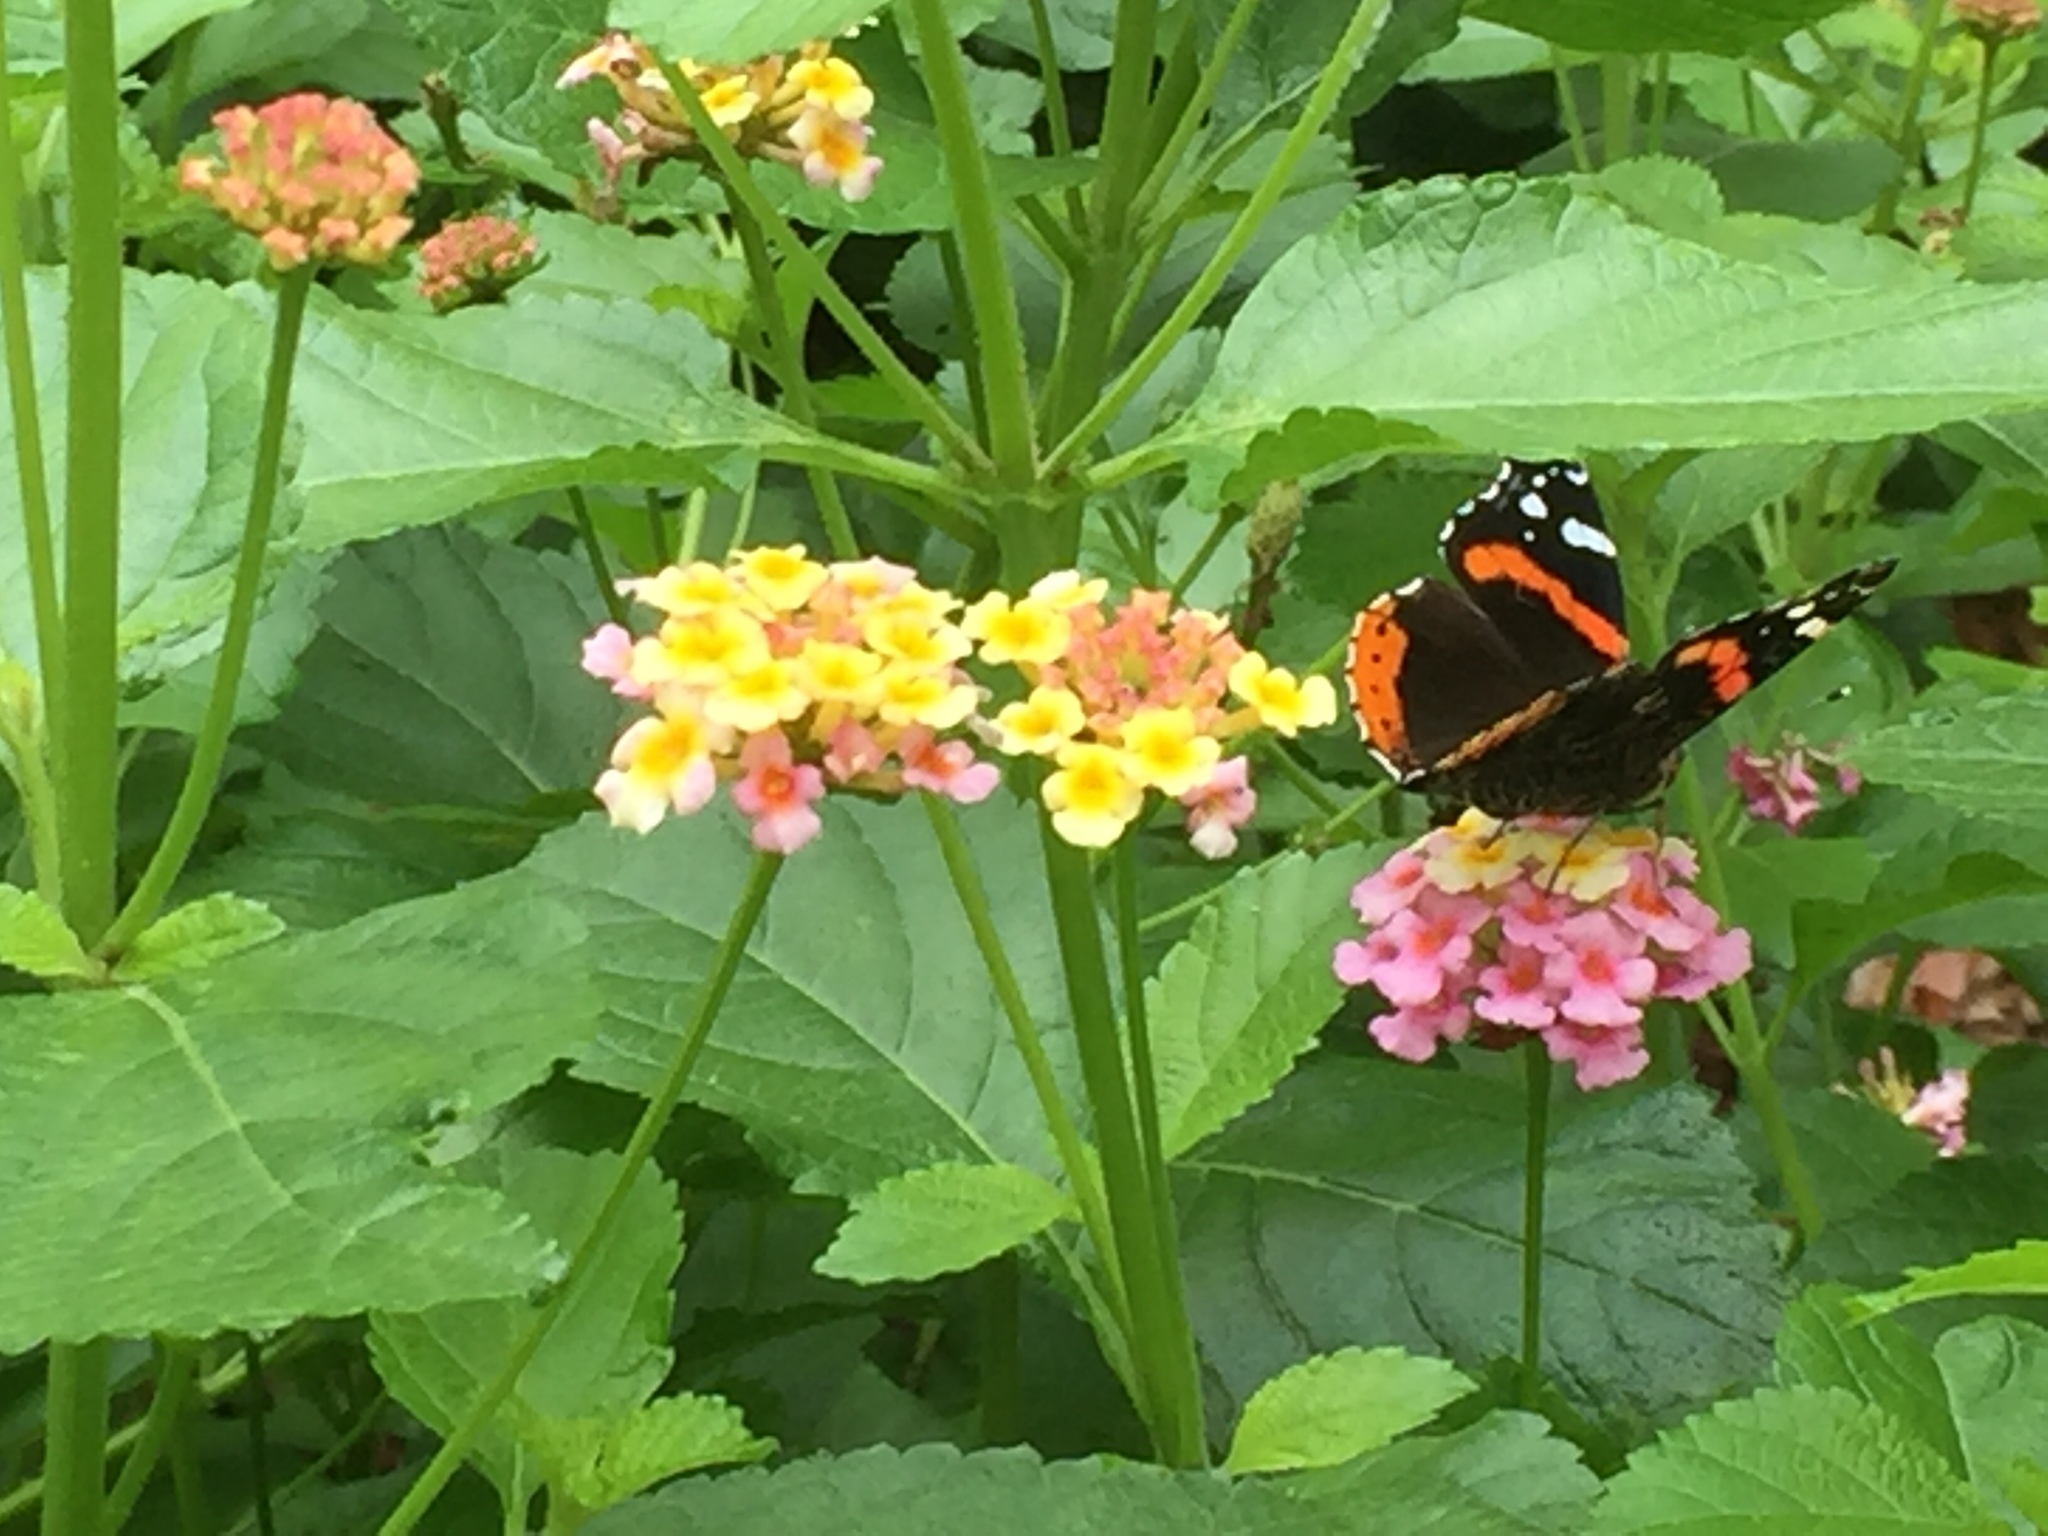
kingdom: Animalia
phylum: Arthropoda
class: Insecta
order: Lepidoptera
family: Nymphalidae
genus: Vanessa
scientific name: Vanessa atalanta
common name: Red admiral
